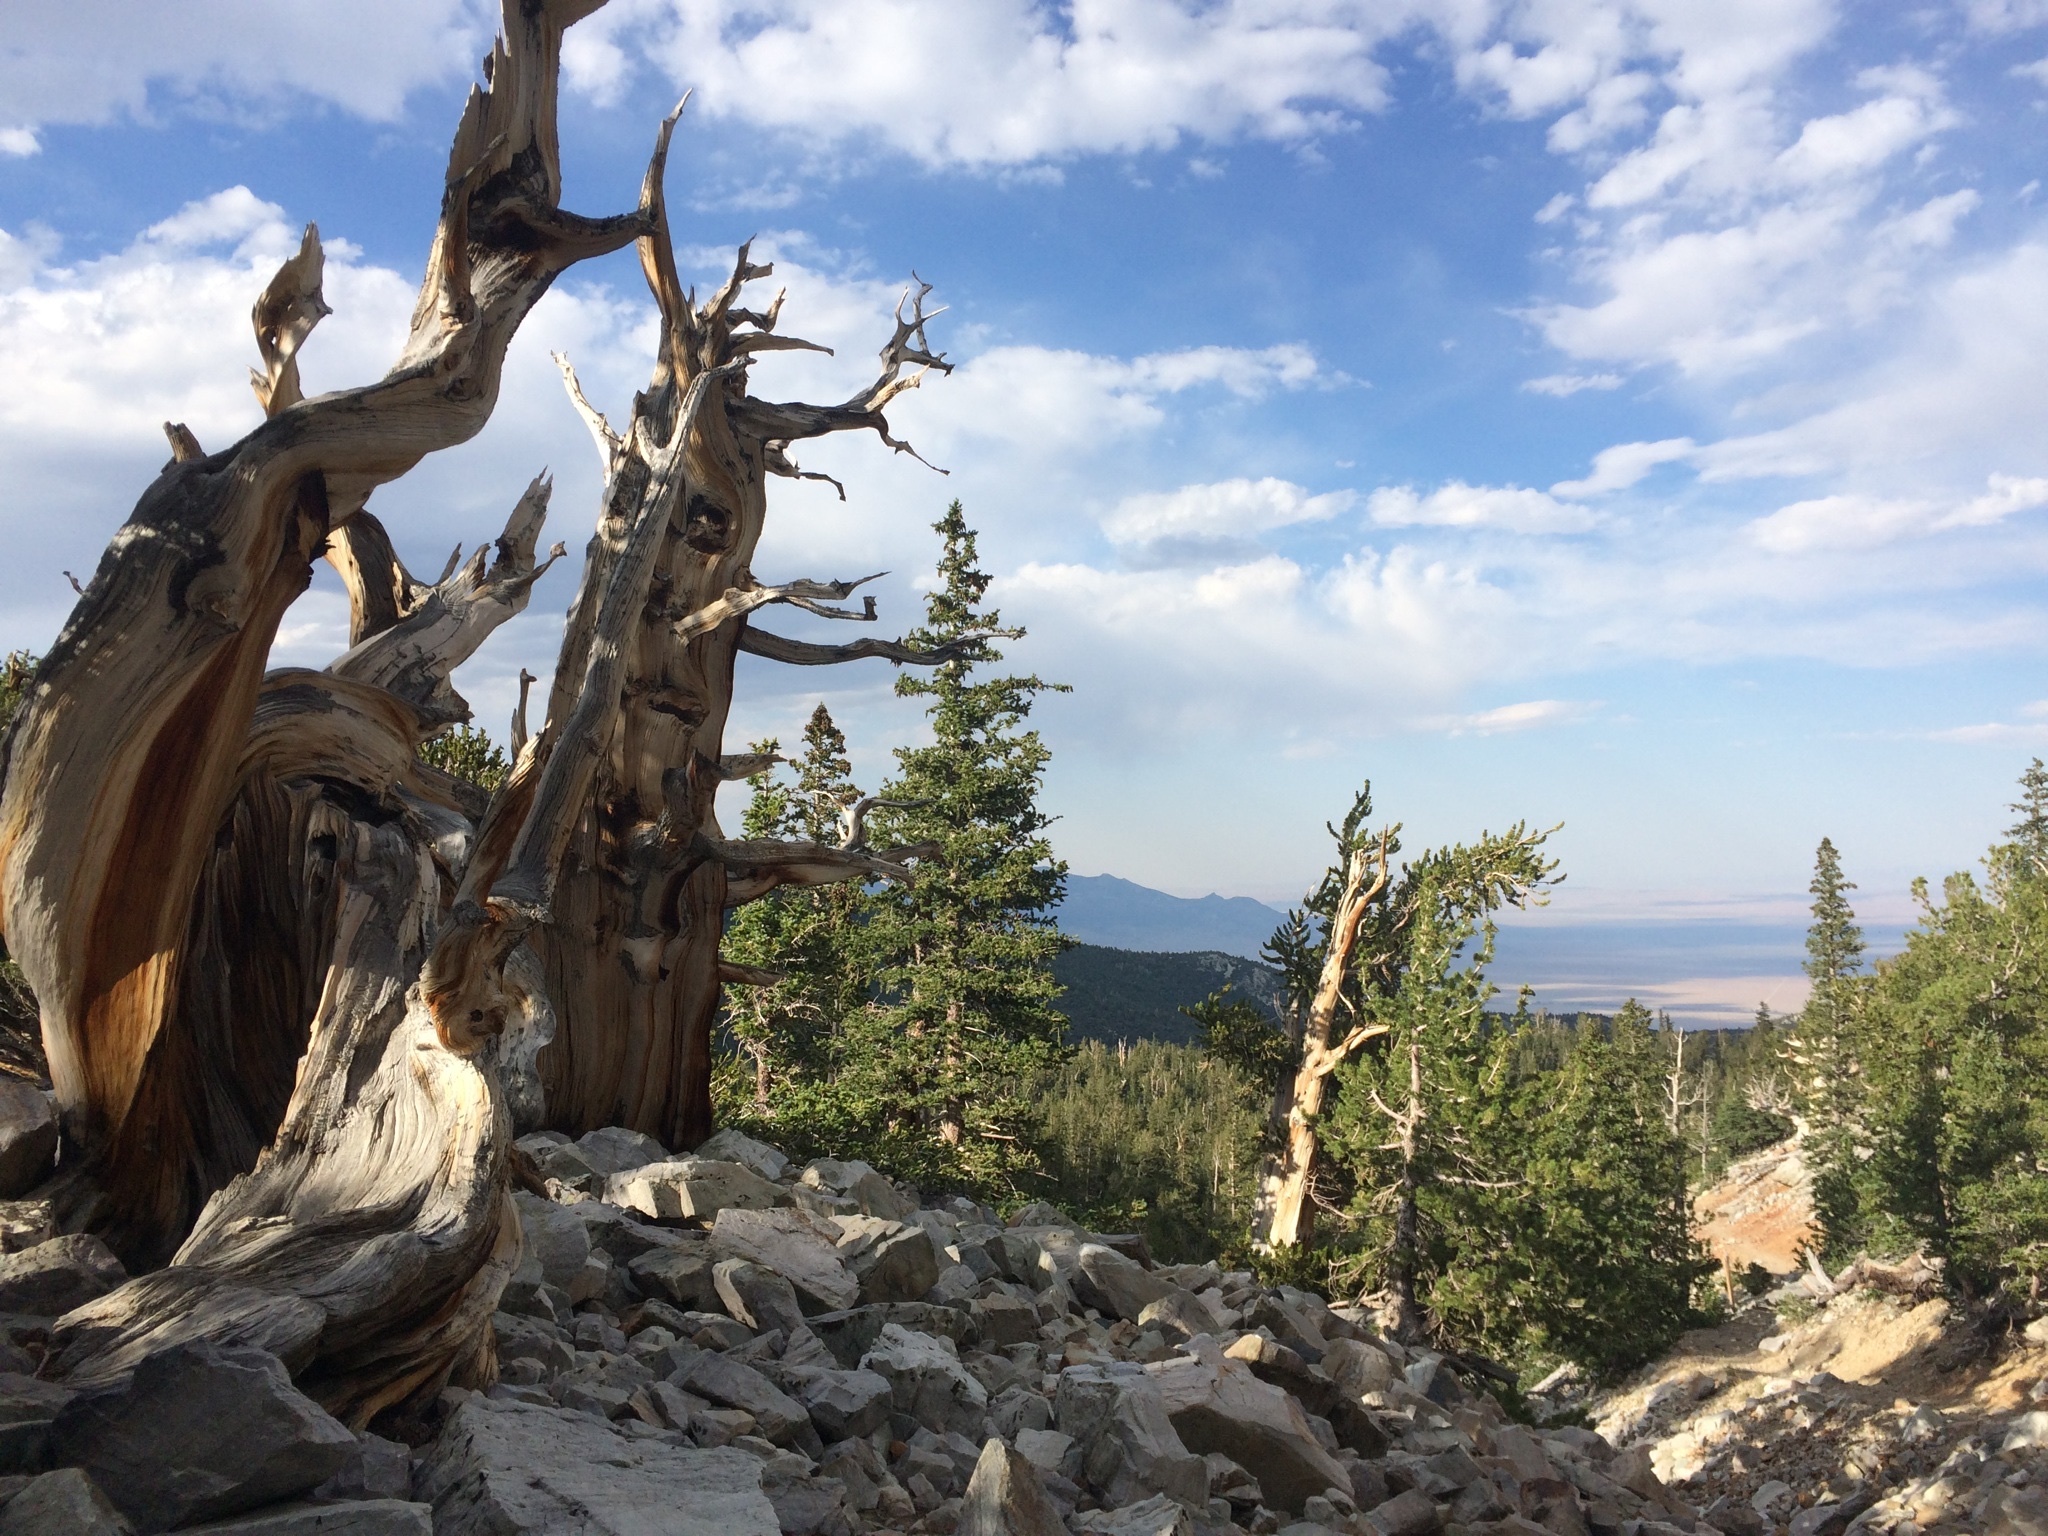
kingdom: Plantae
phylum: Tracheophyta
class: Pinopsida
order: Pinales
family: Pinaceae
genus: Pinus
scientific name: Pinus longaeva
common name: Intermountain bristlecone pine
